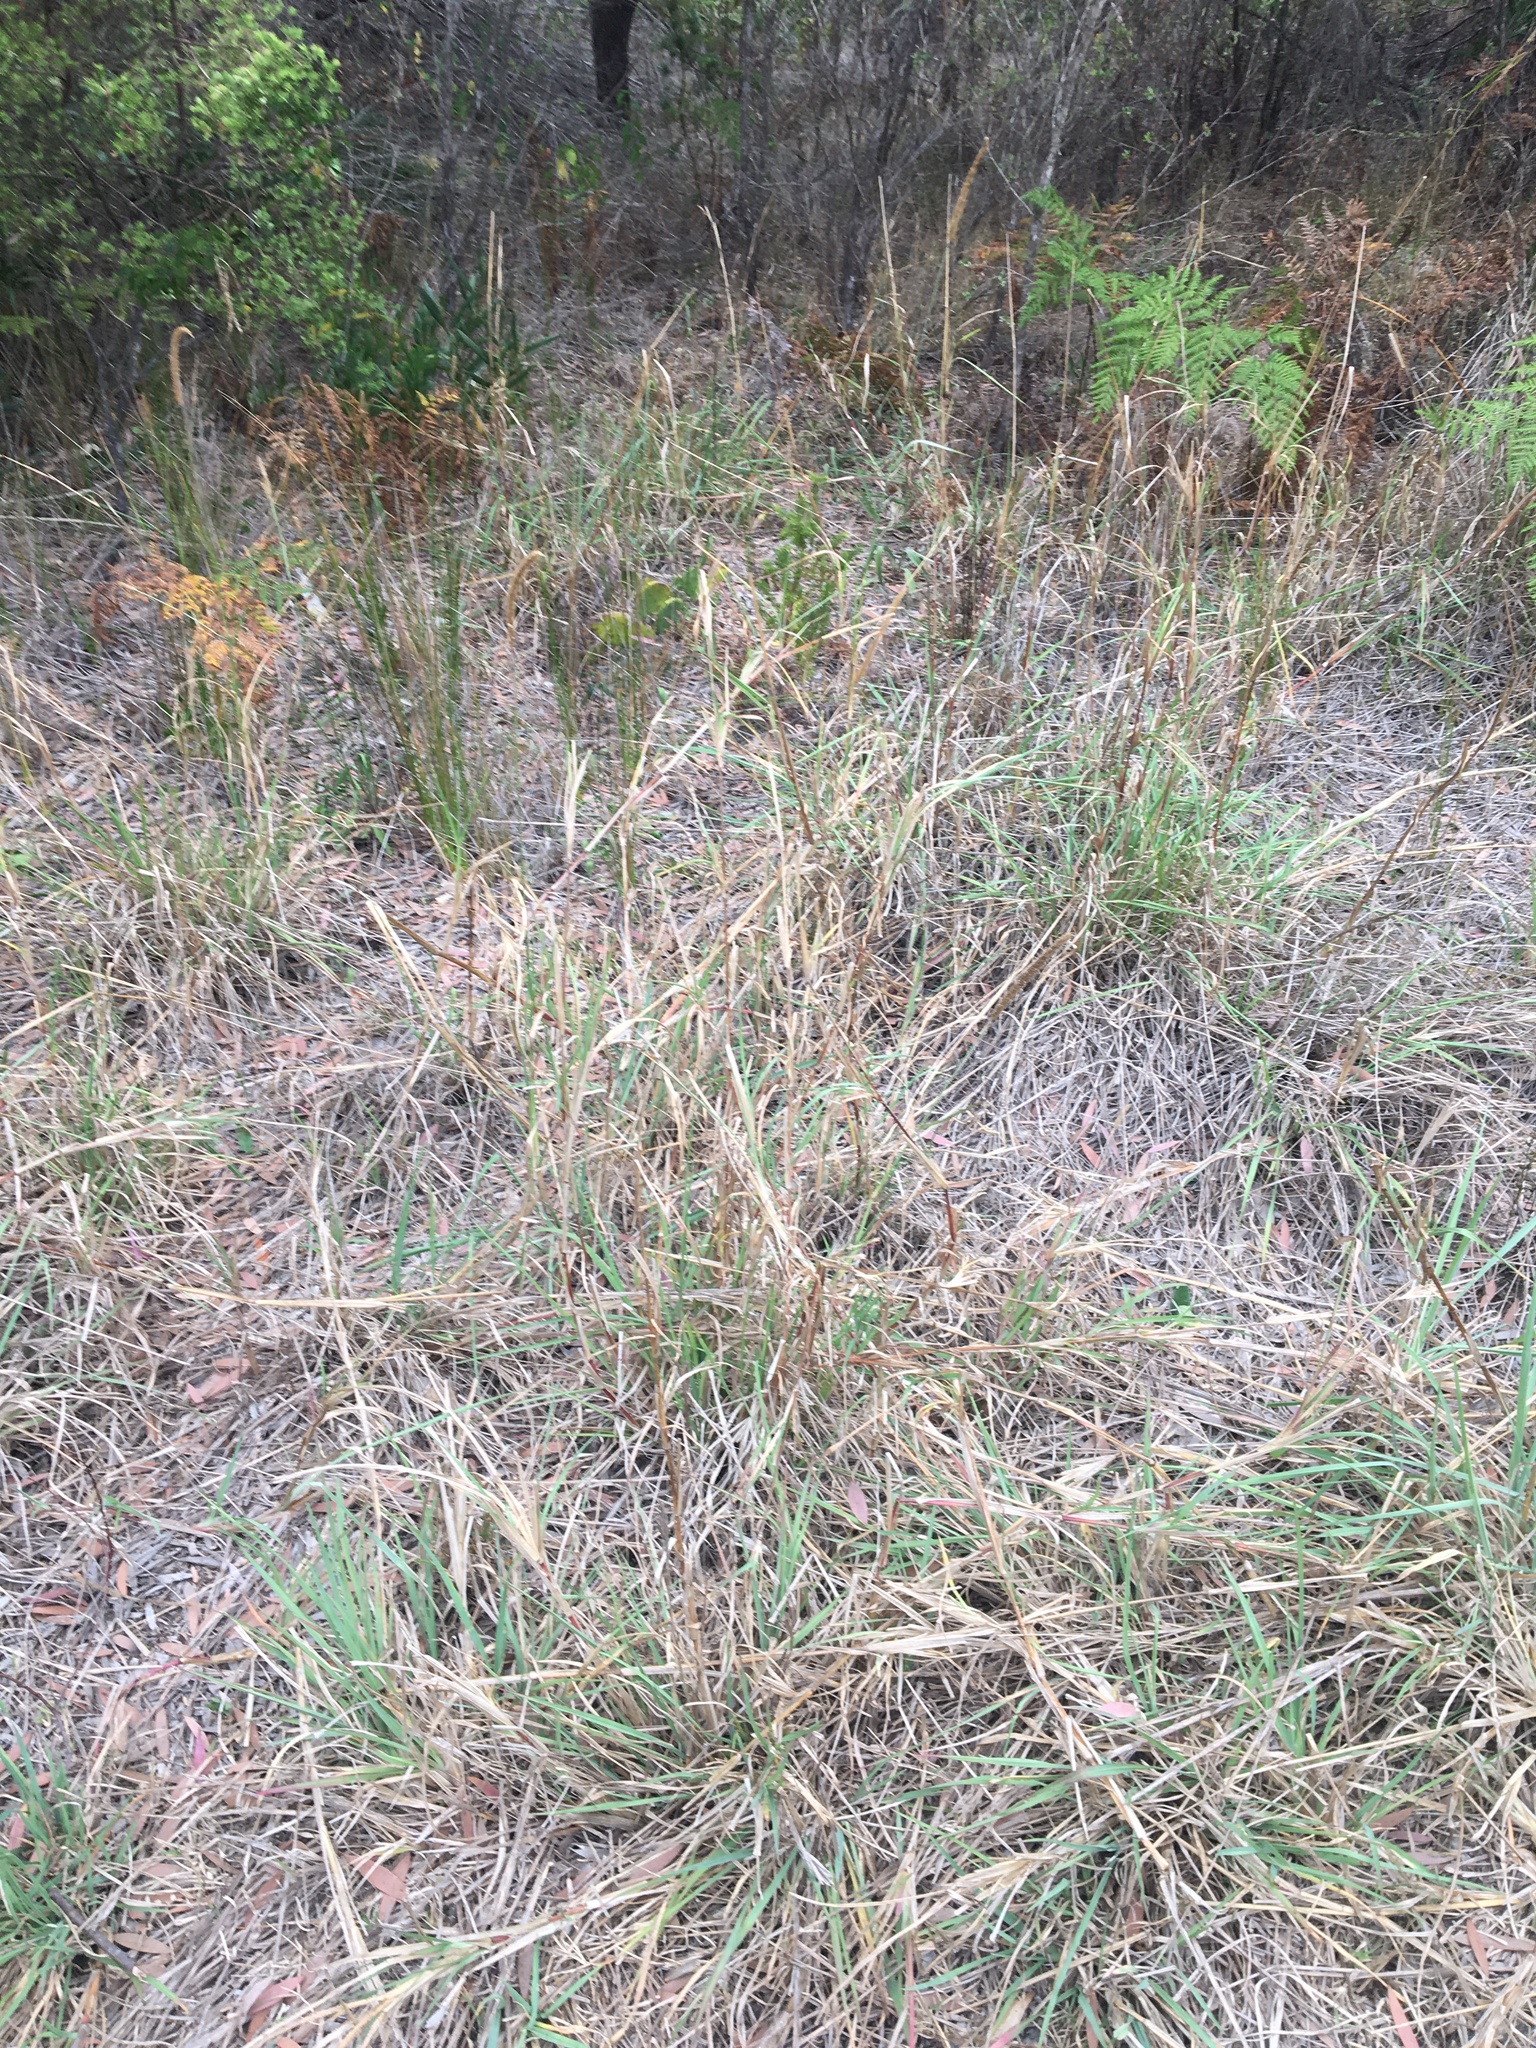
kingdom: Plantae
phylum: Tracheophyta
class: Liliopsida
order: Poales
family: Poaceae
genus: Setaria
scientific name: Setaria parviflora
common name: Knotroot bristle-grass
